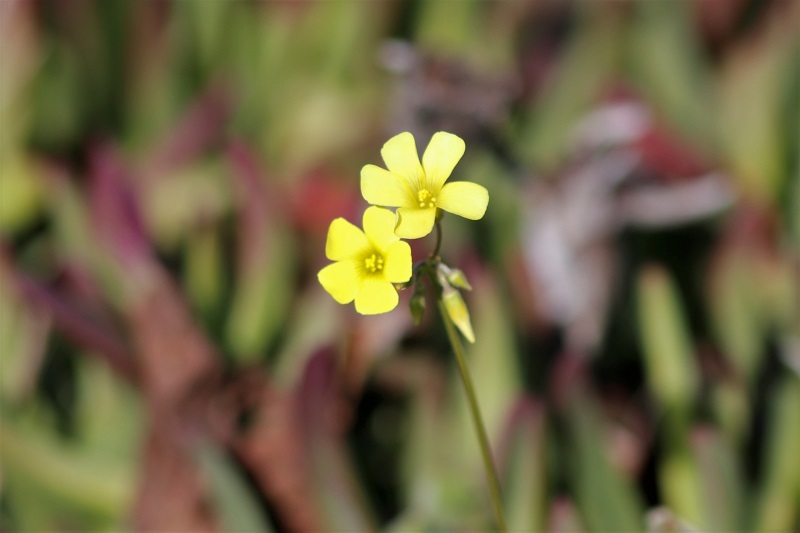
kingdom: Plantae
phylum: Tracheophyta
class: Magnoliopsida
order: Oxalidales
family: Oxalidaceae
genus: Oxalis
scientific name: Oxalis pes-caprae
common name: Bermuda-buttercup
